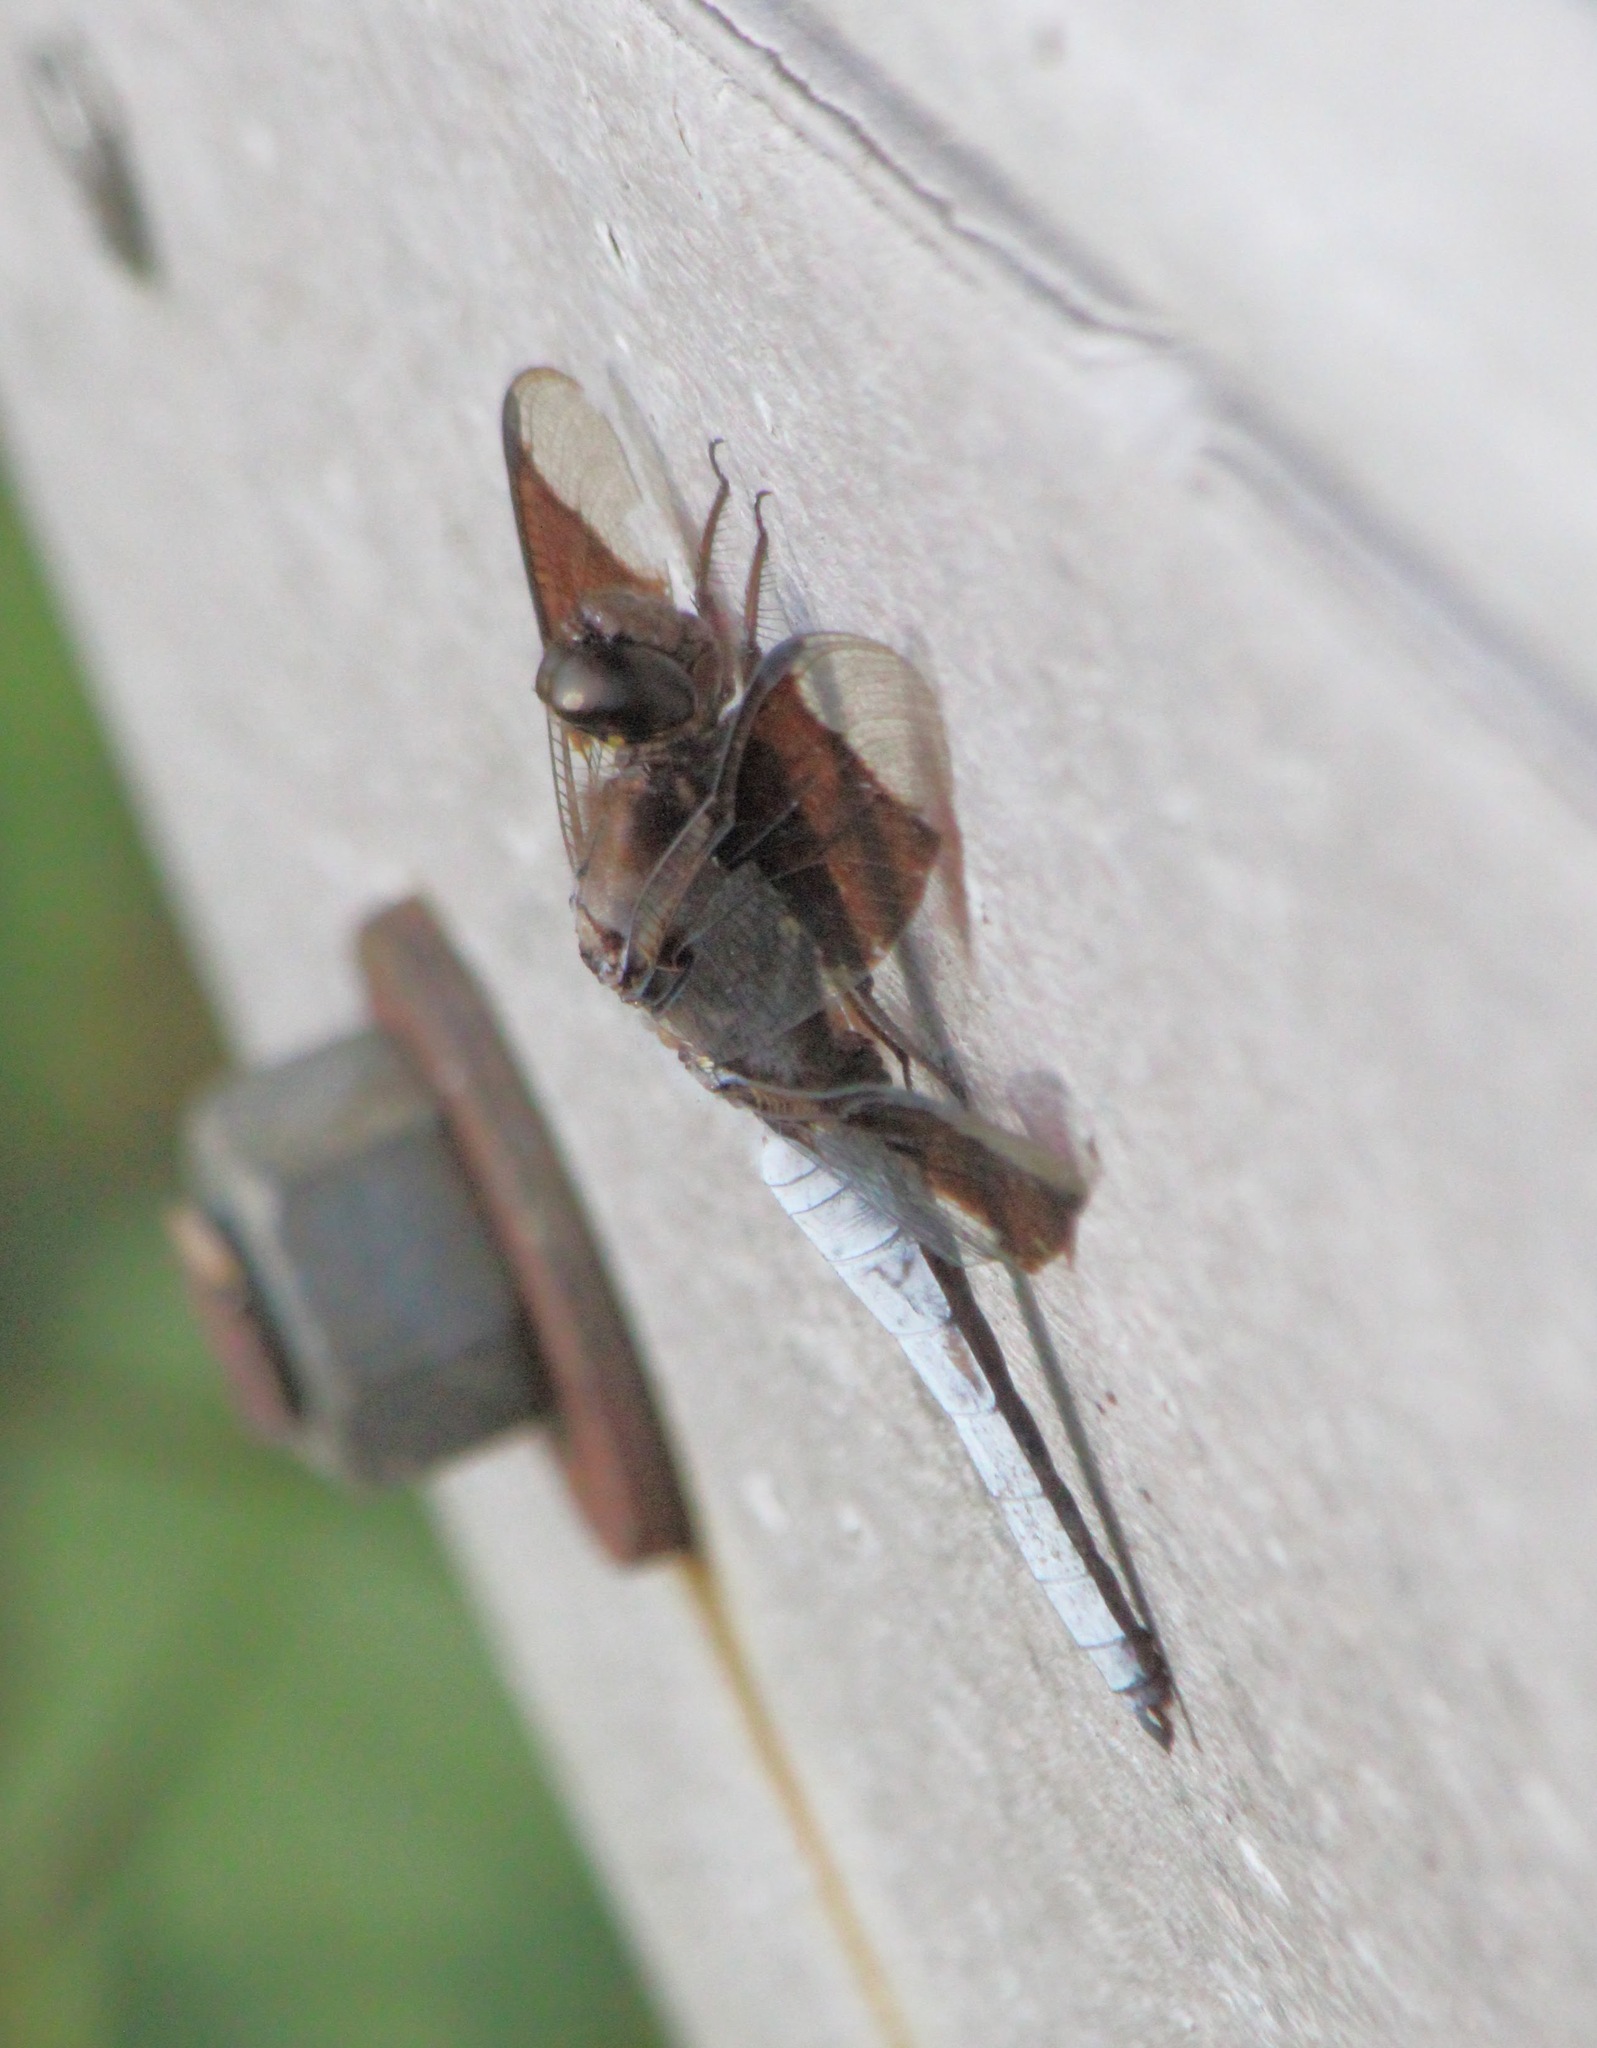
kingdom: Animalia
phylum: Arthropoda
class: Insecta
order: Odonata
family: Libellulidae
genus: Plathemis
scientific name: Plathemis lydia
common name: Common whitetail
